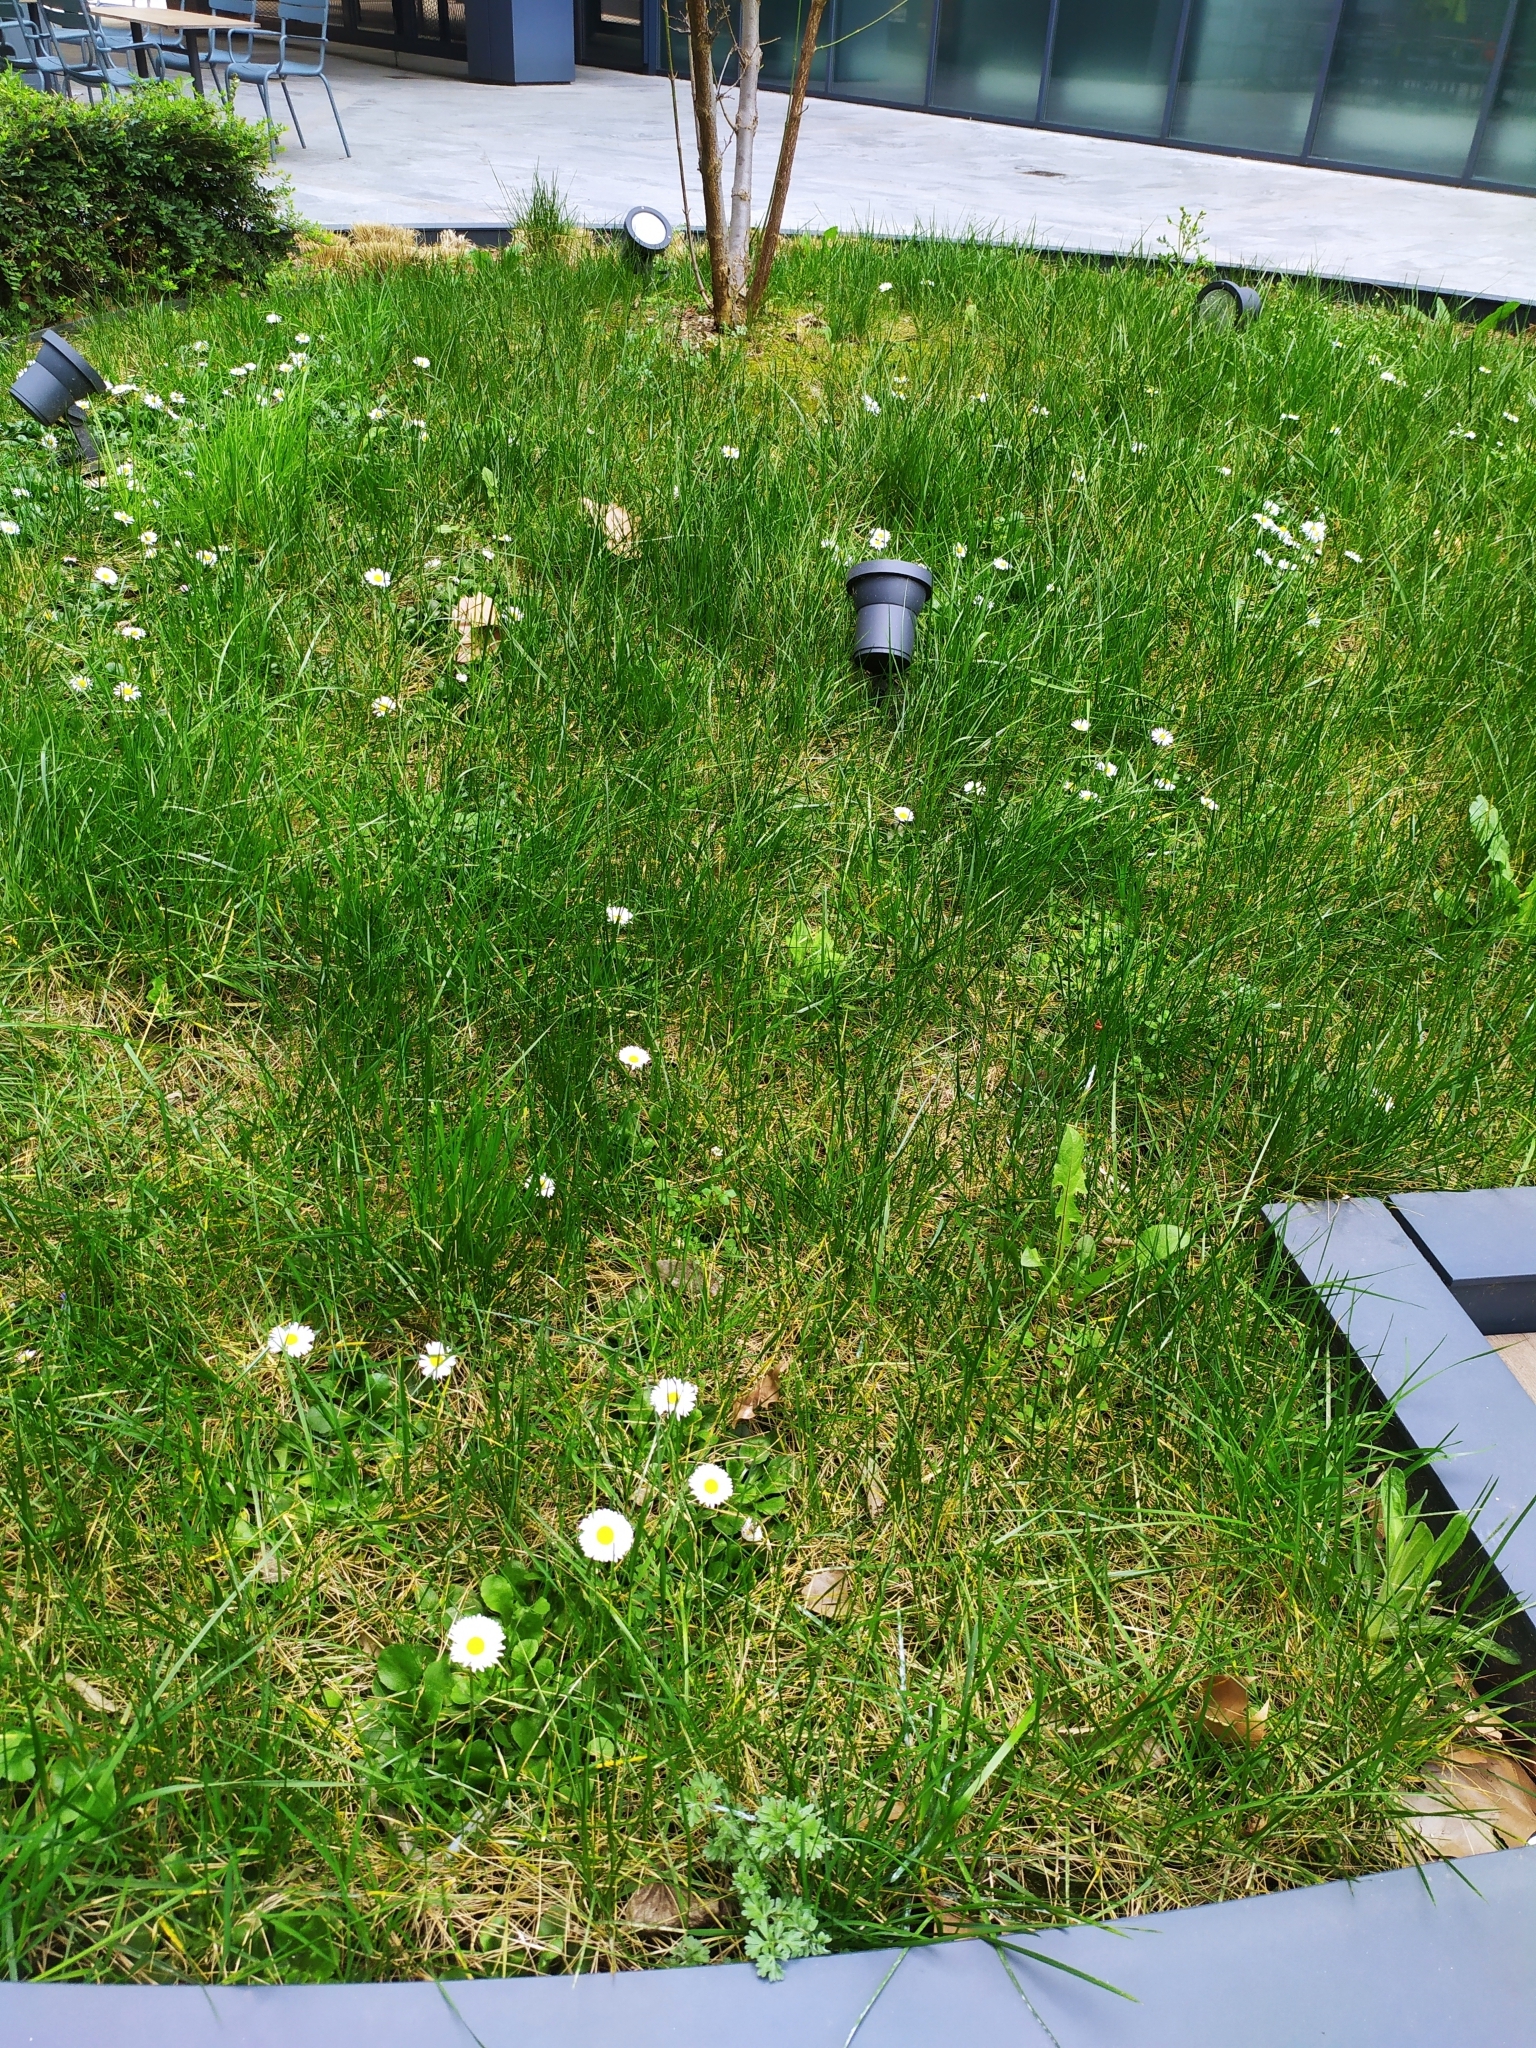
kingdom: Plantae
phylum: Tracheophyta
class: Magnoliopsida
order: Asterales
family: Asteraceae
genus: Artemisia
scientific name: Artemisia absinthium
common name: Wormwood
